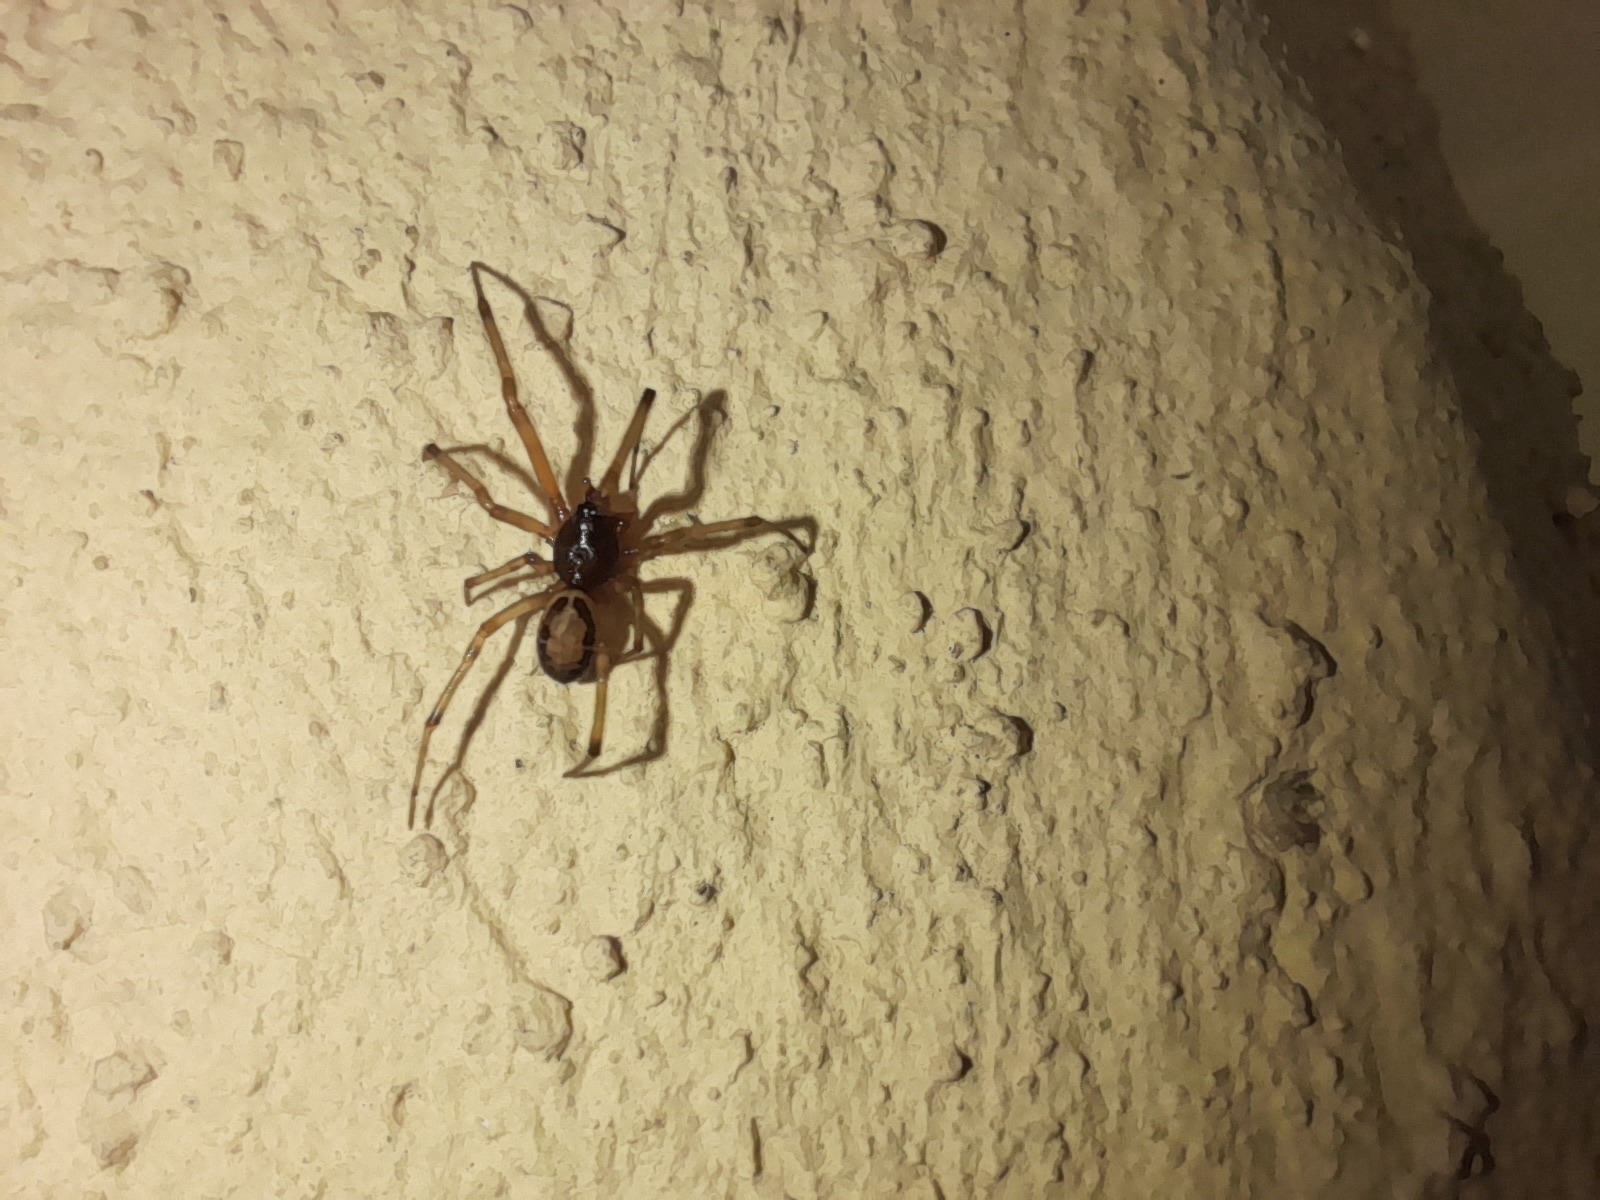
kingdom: Animalia
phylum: Arthropoda
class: Arachnida
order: Araneae
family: Theridiidae
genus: Steatoda
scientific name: Steatoda nobilis
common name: Cobweb weaver
